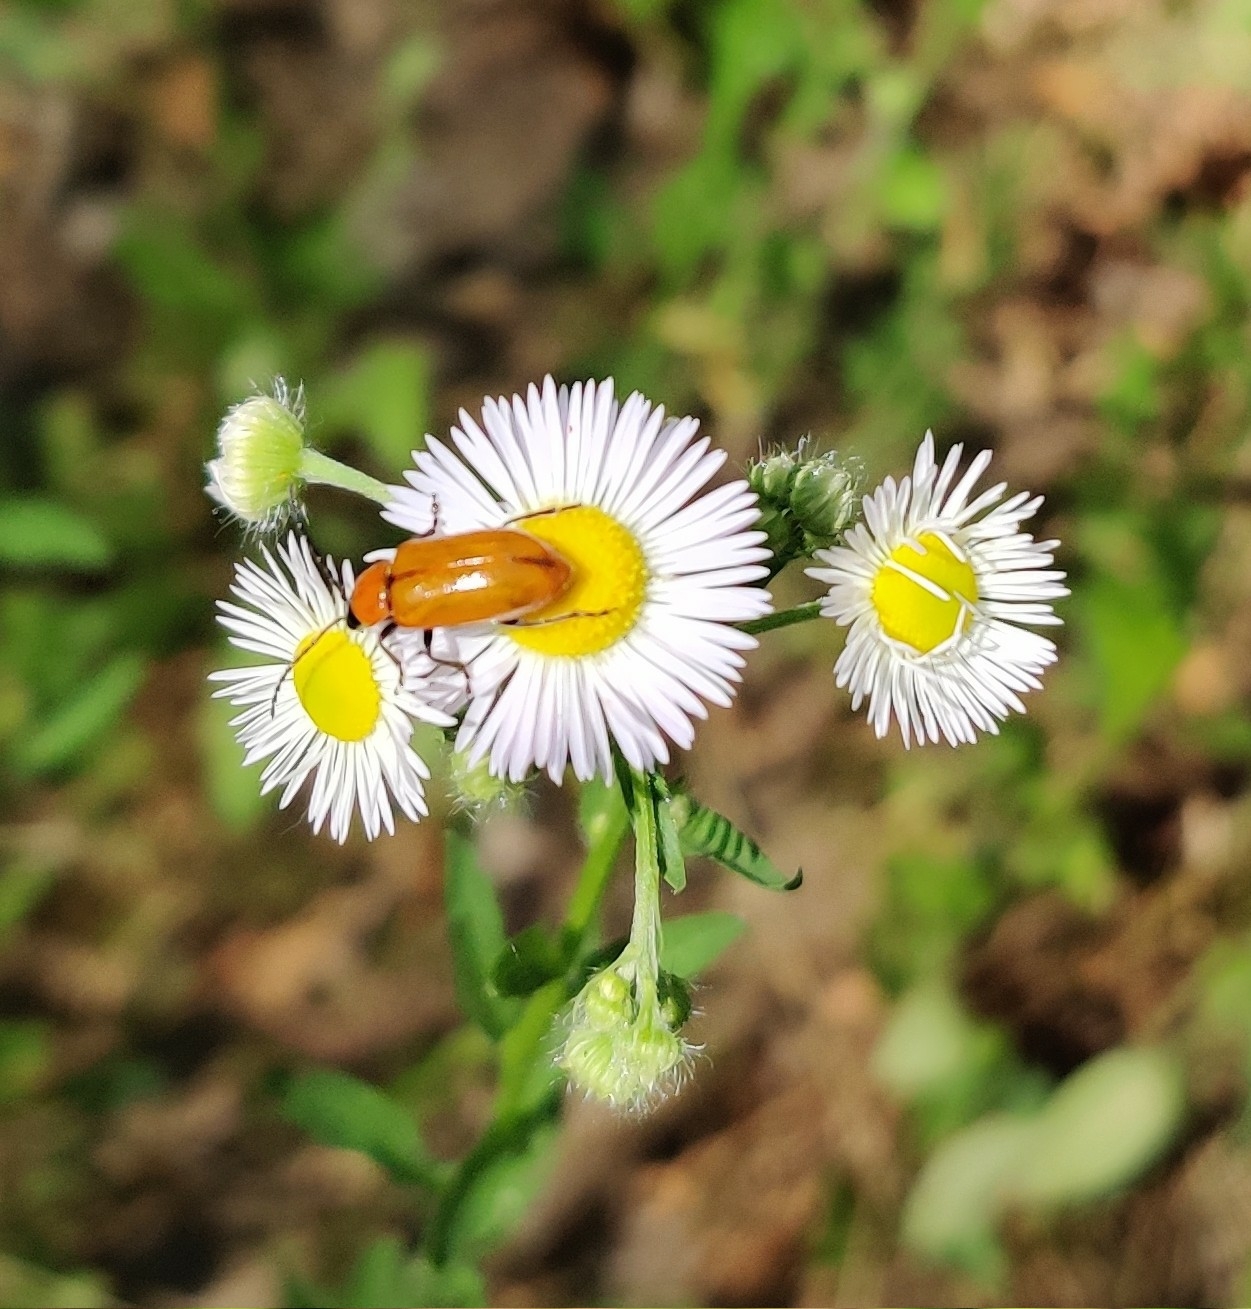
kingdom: Animalia
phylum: Arthropoda
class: Insecta
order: Coleoptera
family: Chrysomelidae
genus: Exosoma
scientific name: Exosoma lusitanicum
